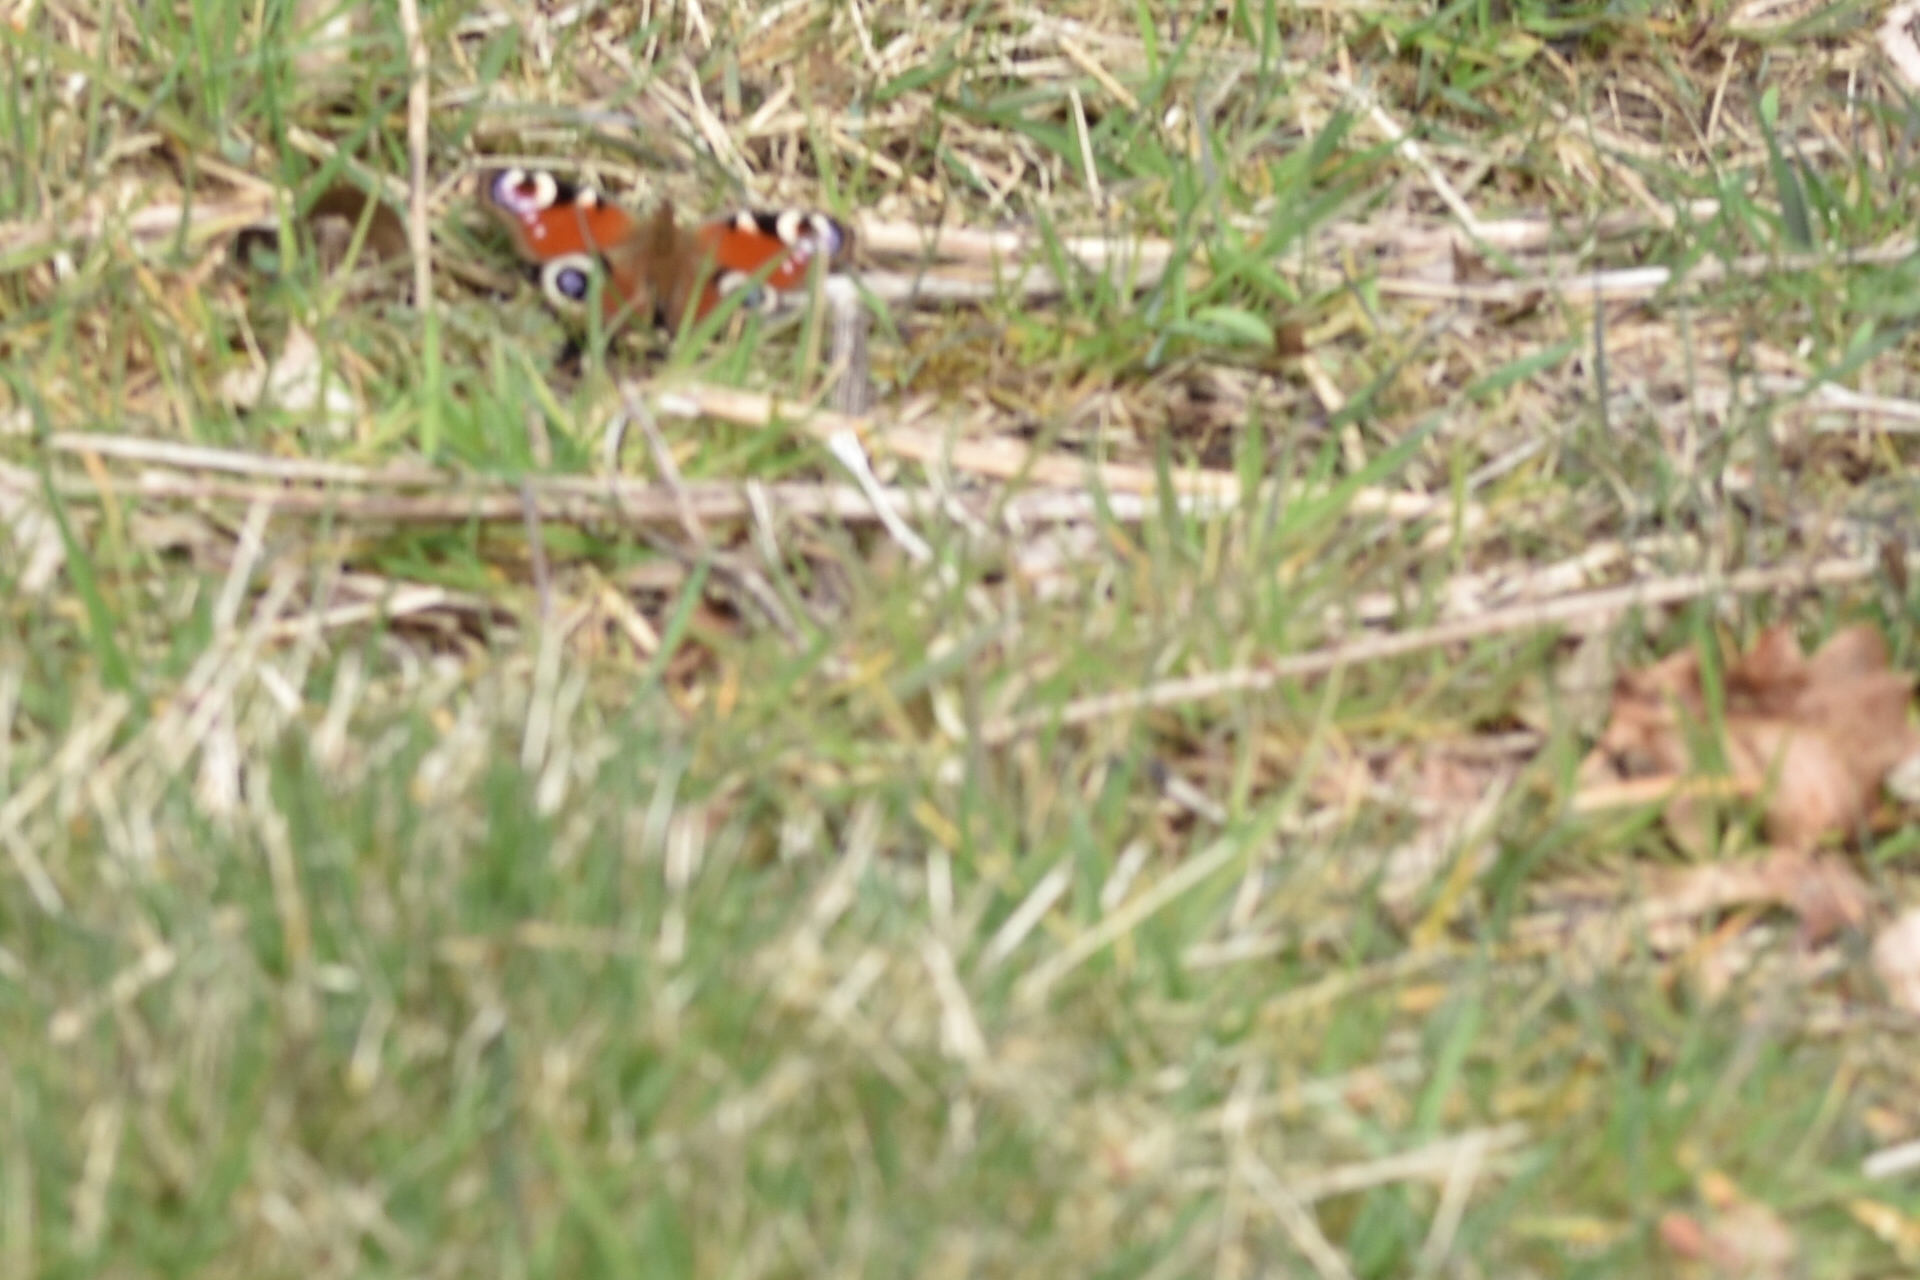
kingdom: Animalia
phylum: Arthropoda
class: Insecta
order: Lepidoptera
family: Nymphalidae
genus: Aglais
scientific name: Aglais io
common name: Peacock
